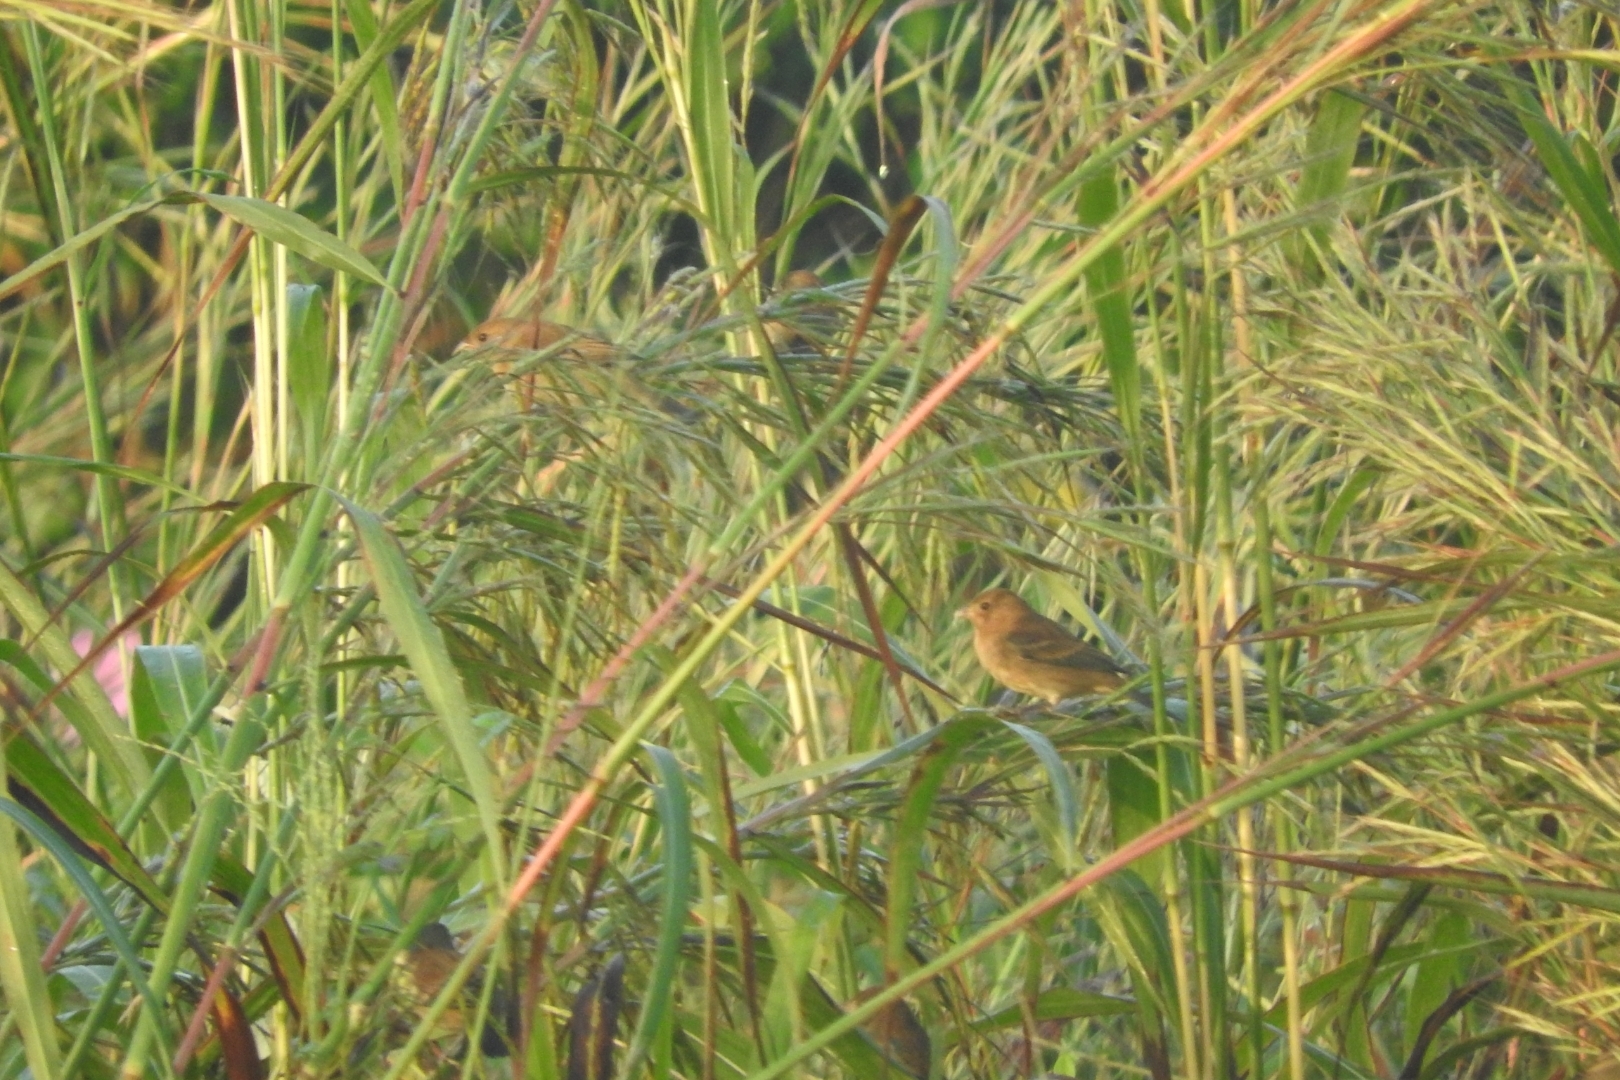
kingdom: Animalia
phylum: Chordata
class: Aves
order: Passeriformes
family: Cardinalidae
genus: Passerina
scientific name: Passerina cyanea
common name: Indigo bunting
